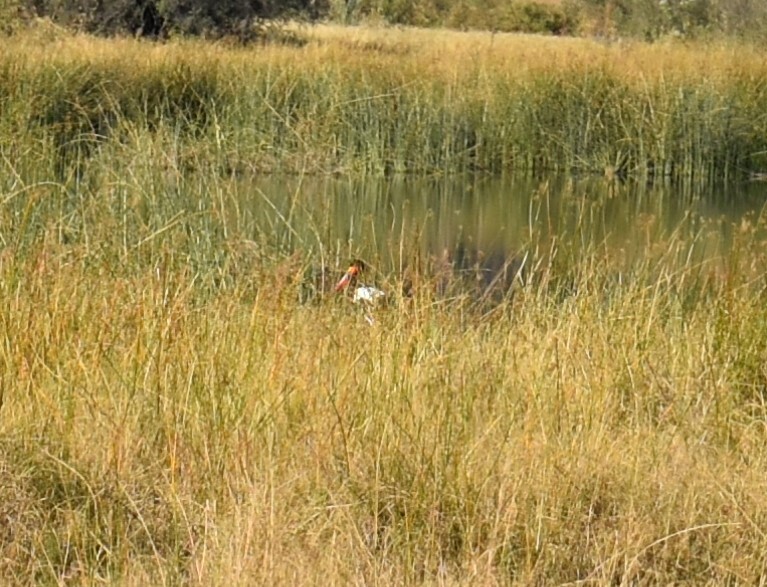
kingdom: Animalia
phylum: Chordata
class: Aves
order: Ciconiiformes
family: Ciconiidae
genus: Ephippiorhynchus
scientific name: Ephippiorhynchus senegalensis
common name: Saddle-billed stork
